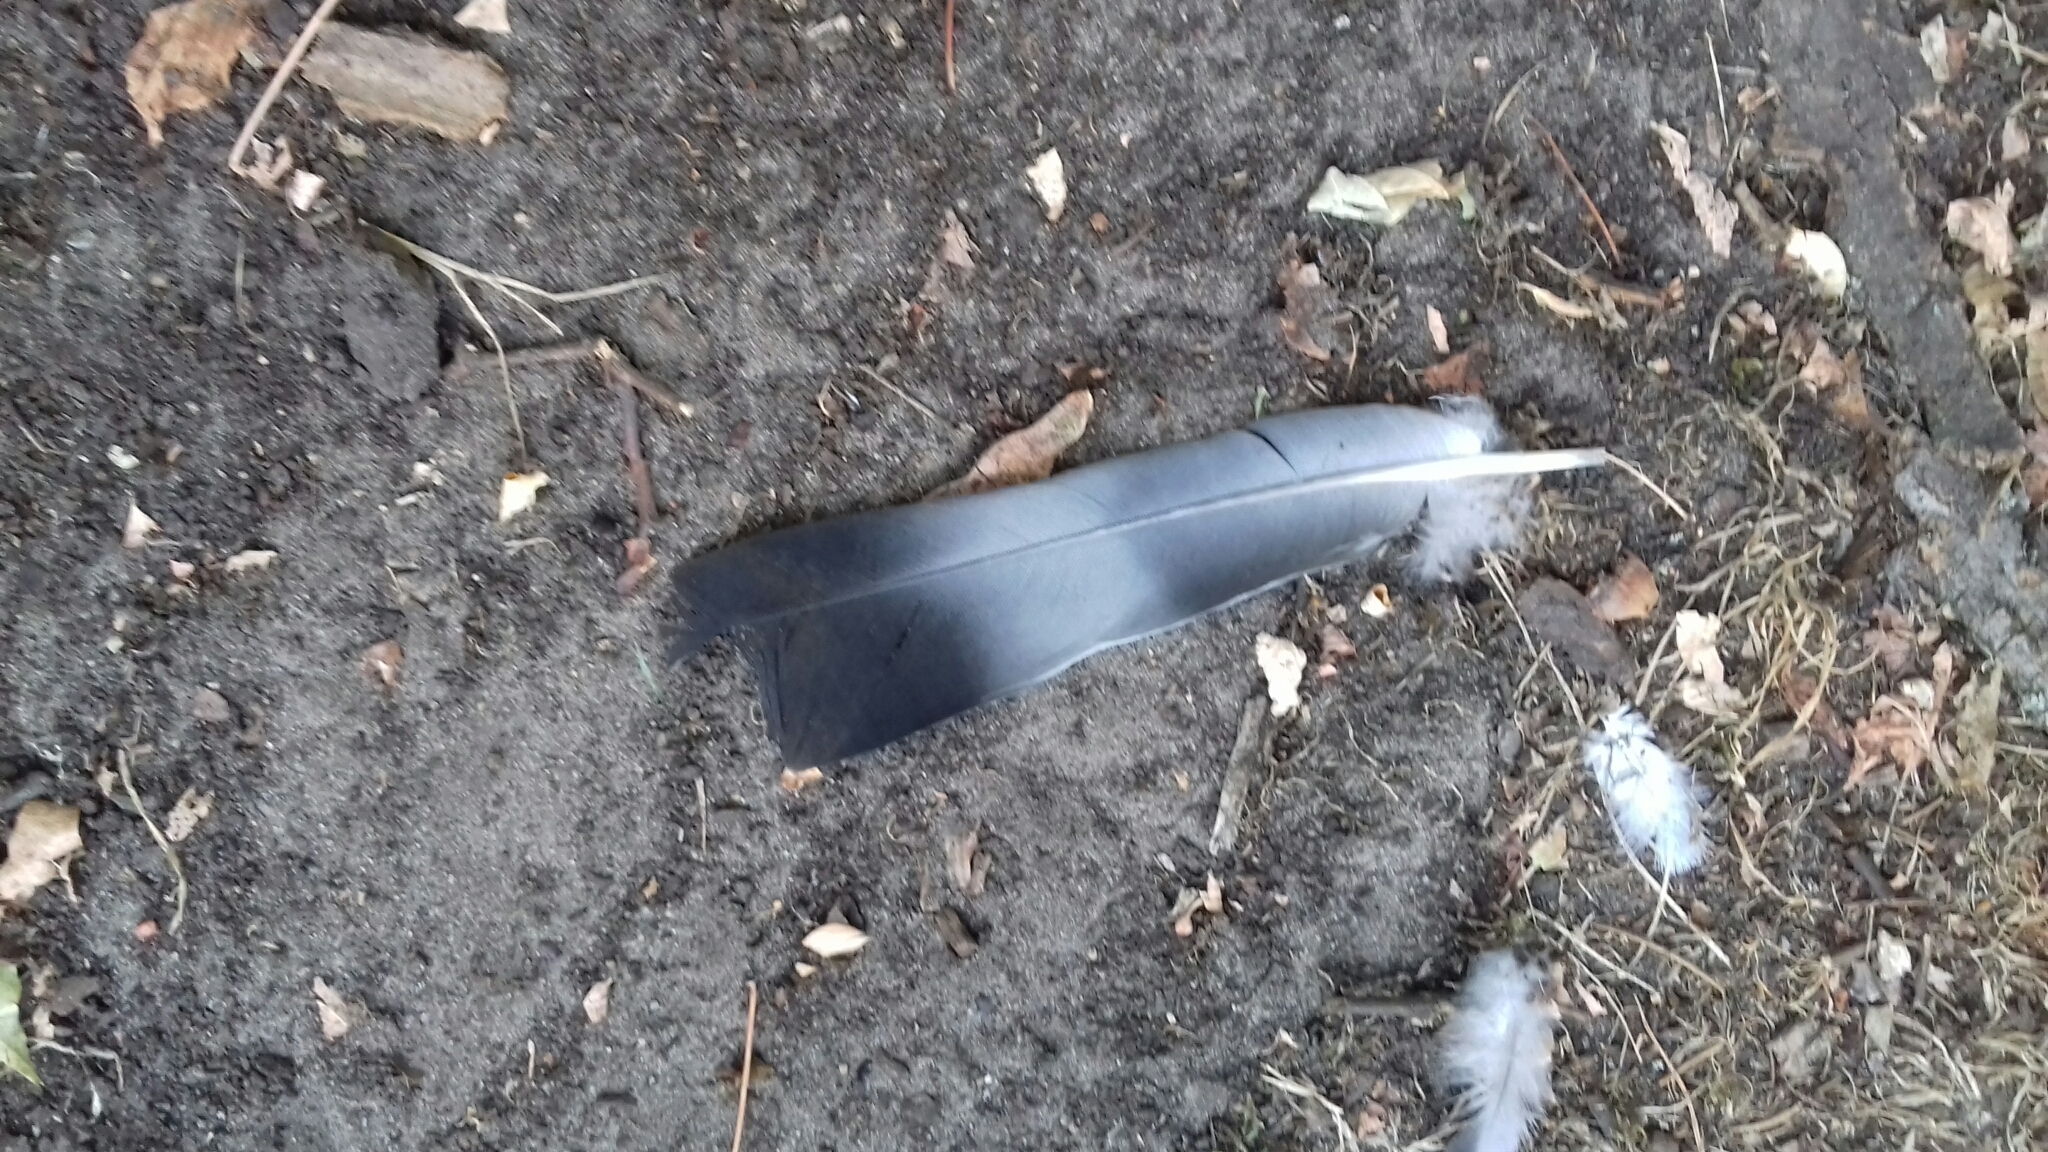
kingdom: Animalia
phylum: Chordata
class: Aves
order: Columbiformes
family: Columbidae
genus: Columba
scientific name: Columba palumbus
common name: Common wood pigeon
